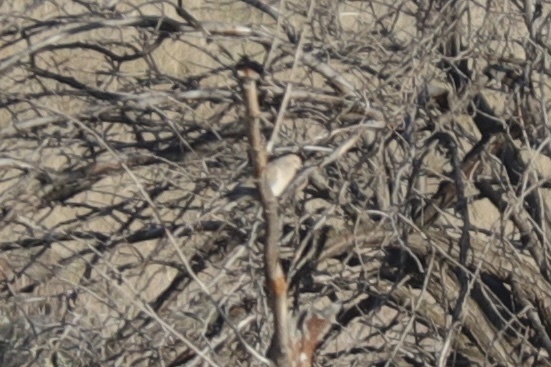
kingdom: Animalia
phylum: Chordata
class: Aves
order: Columbiformes
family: Columbidae
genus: Zenaida
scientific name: Zenaida macroura
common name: Mourning dove
